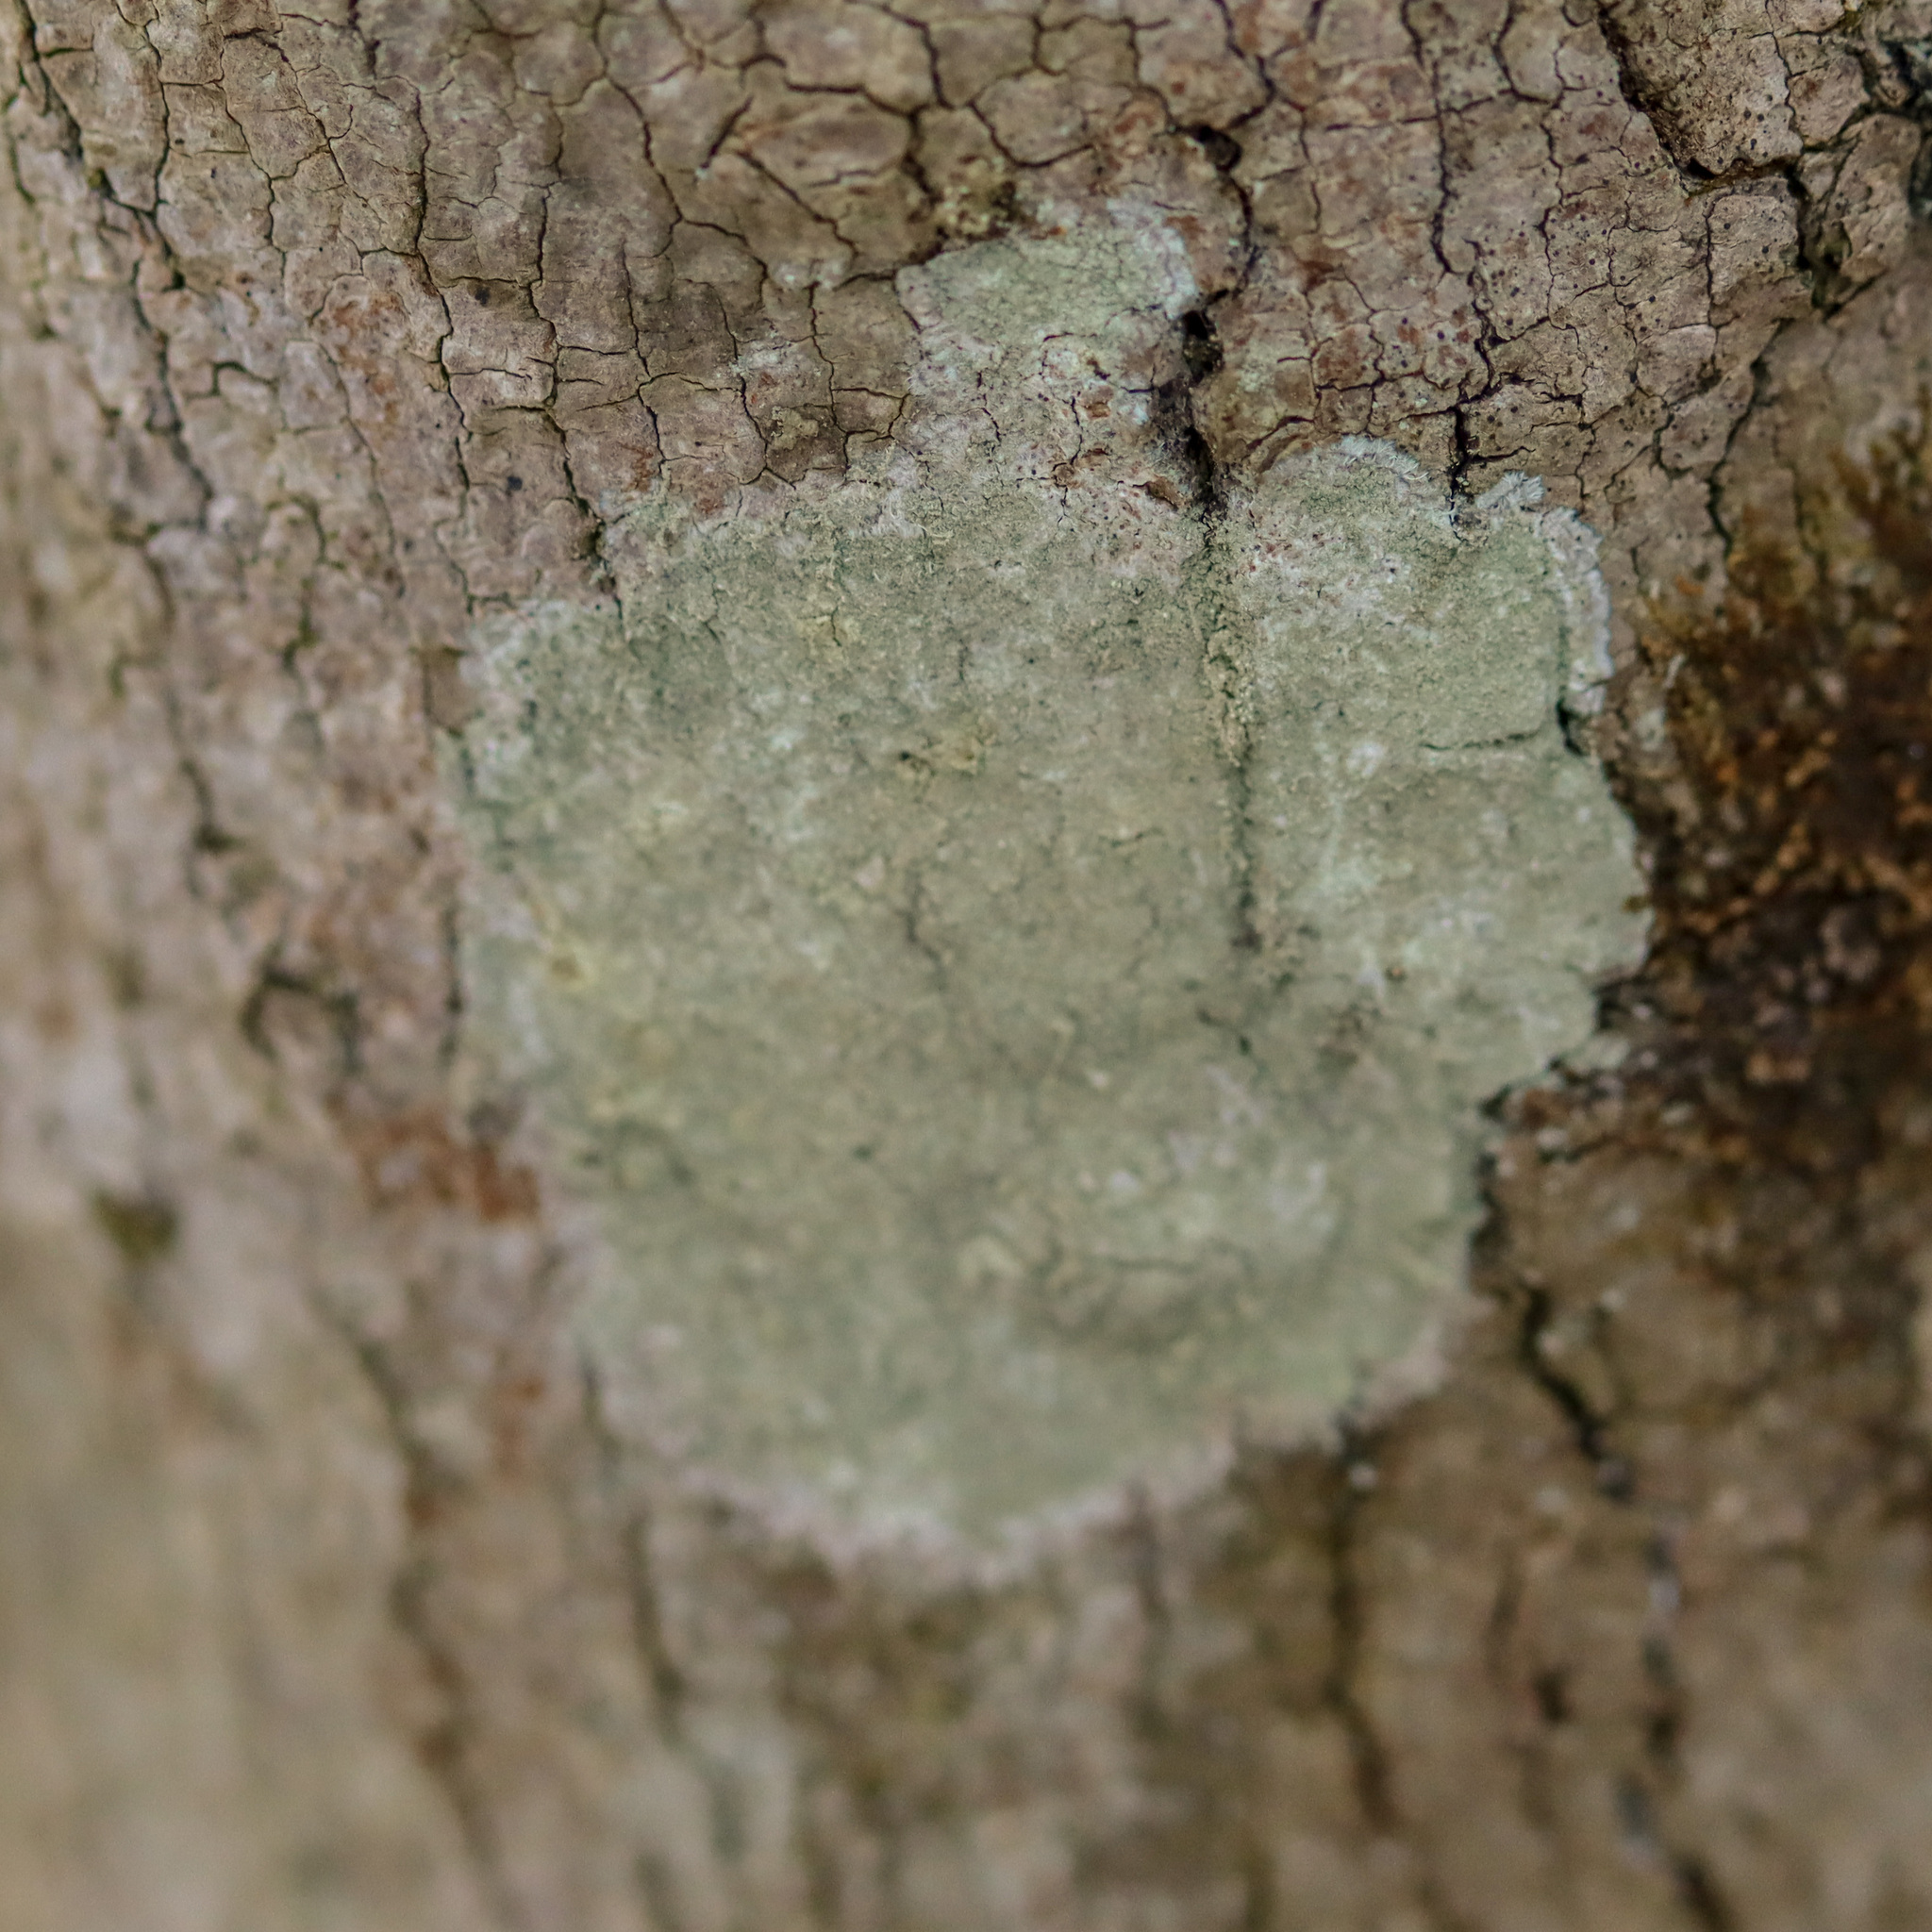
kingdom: Fungi
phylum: Ascomycota
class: Lecanoromycetes
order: Pertusariales
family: Pertusariaceae
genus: Verseghya
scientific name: Verseghya thysanophora
